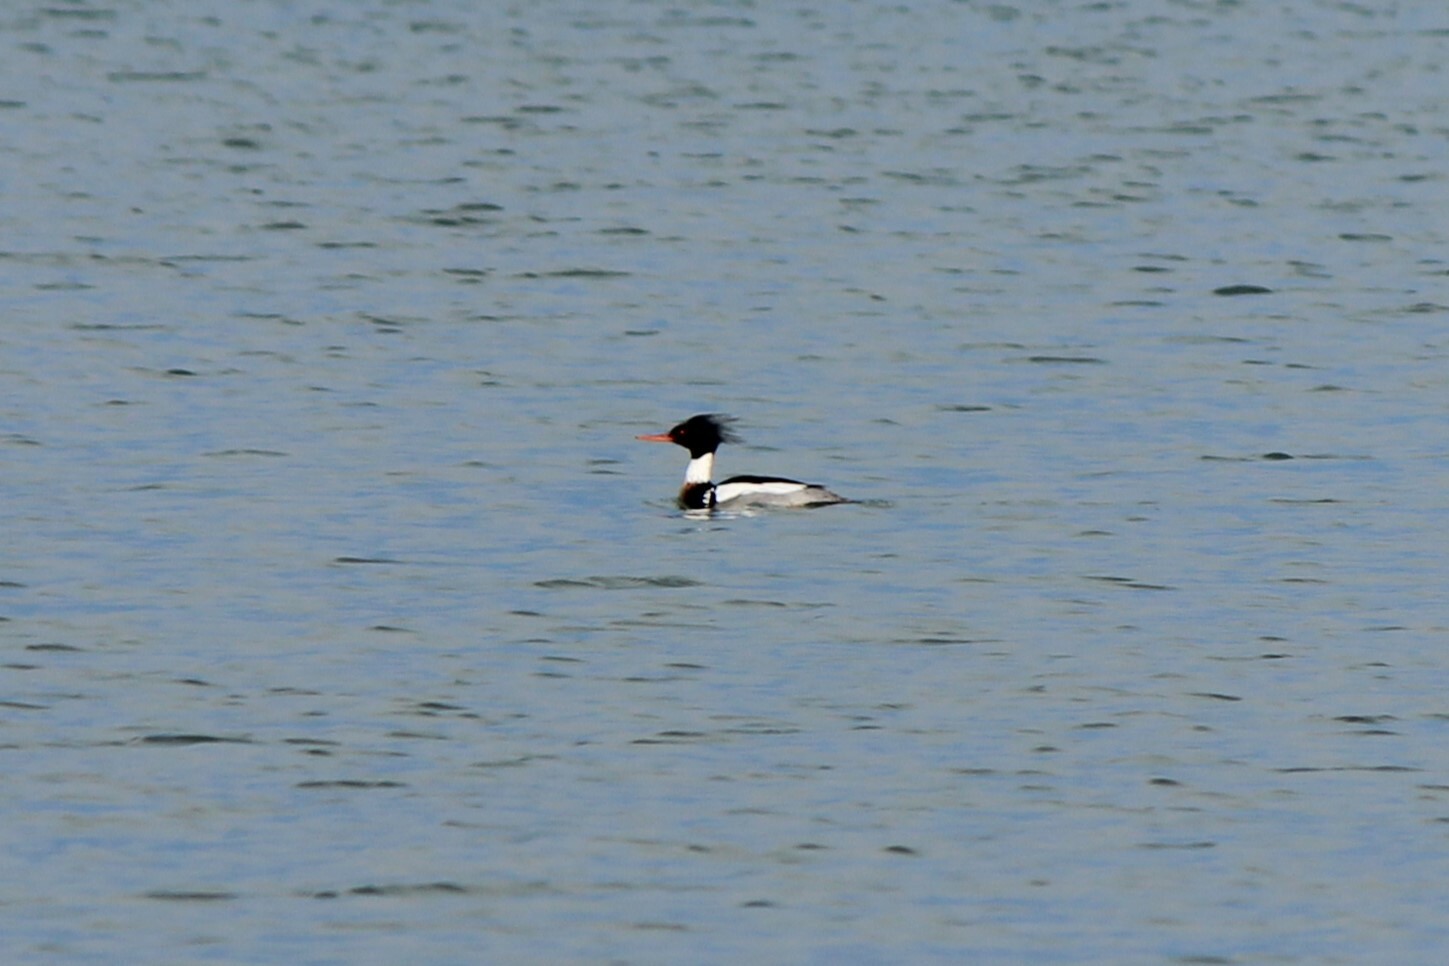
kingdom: Animalia
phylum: Chordata
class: Aves
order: Anseriformes
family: Anatidae
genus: Mergus
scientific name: Mergus serrator
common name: Red-breasted merganser
